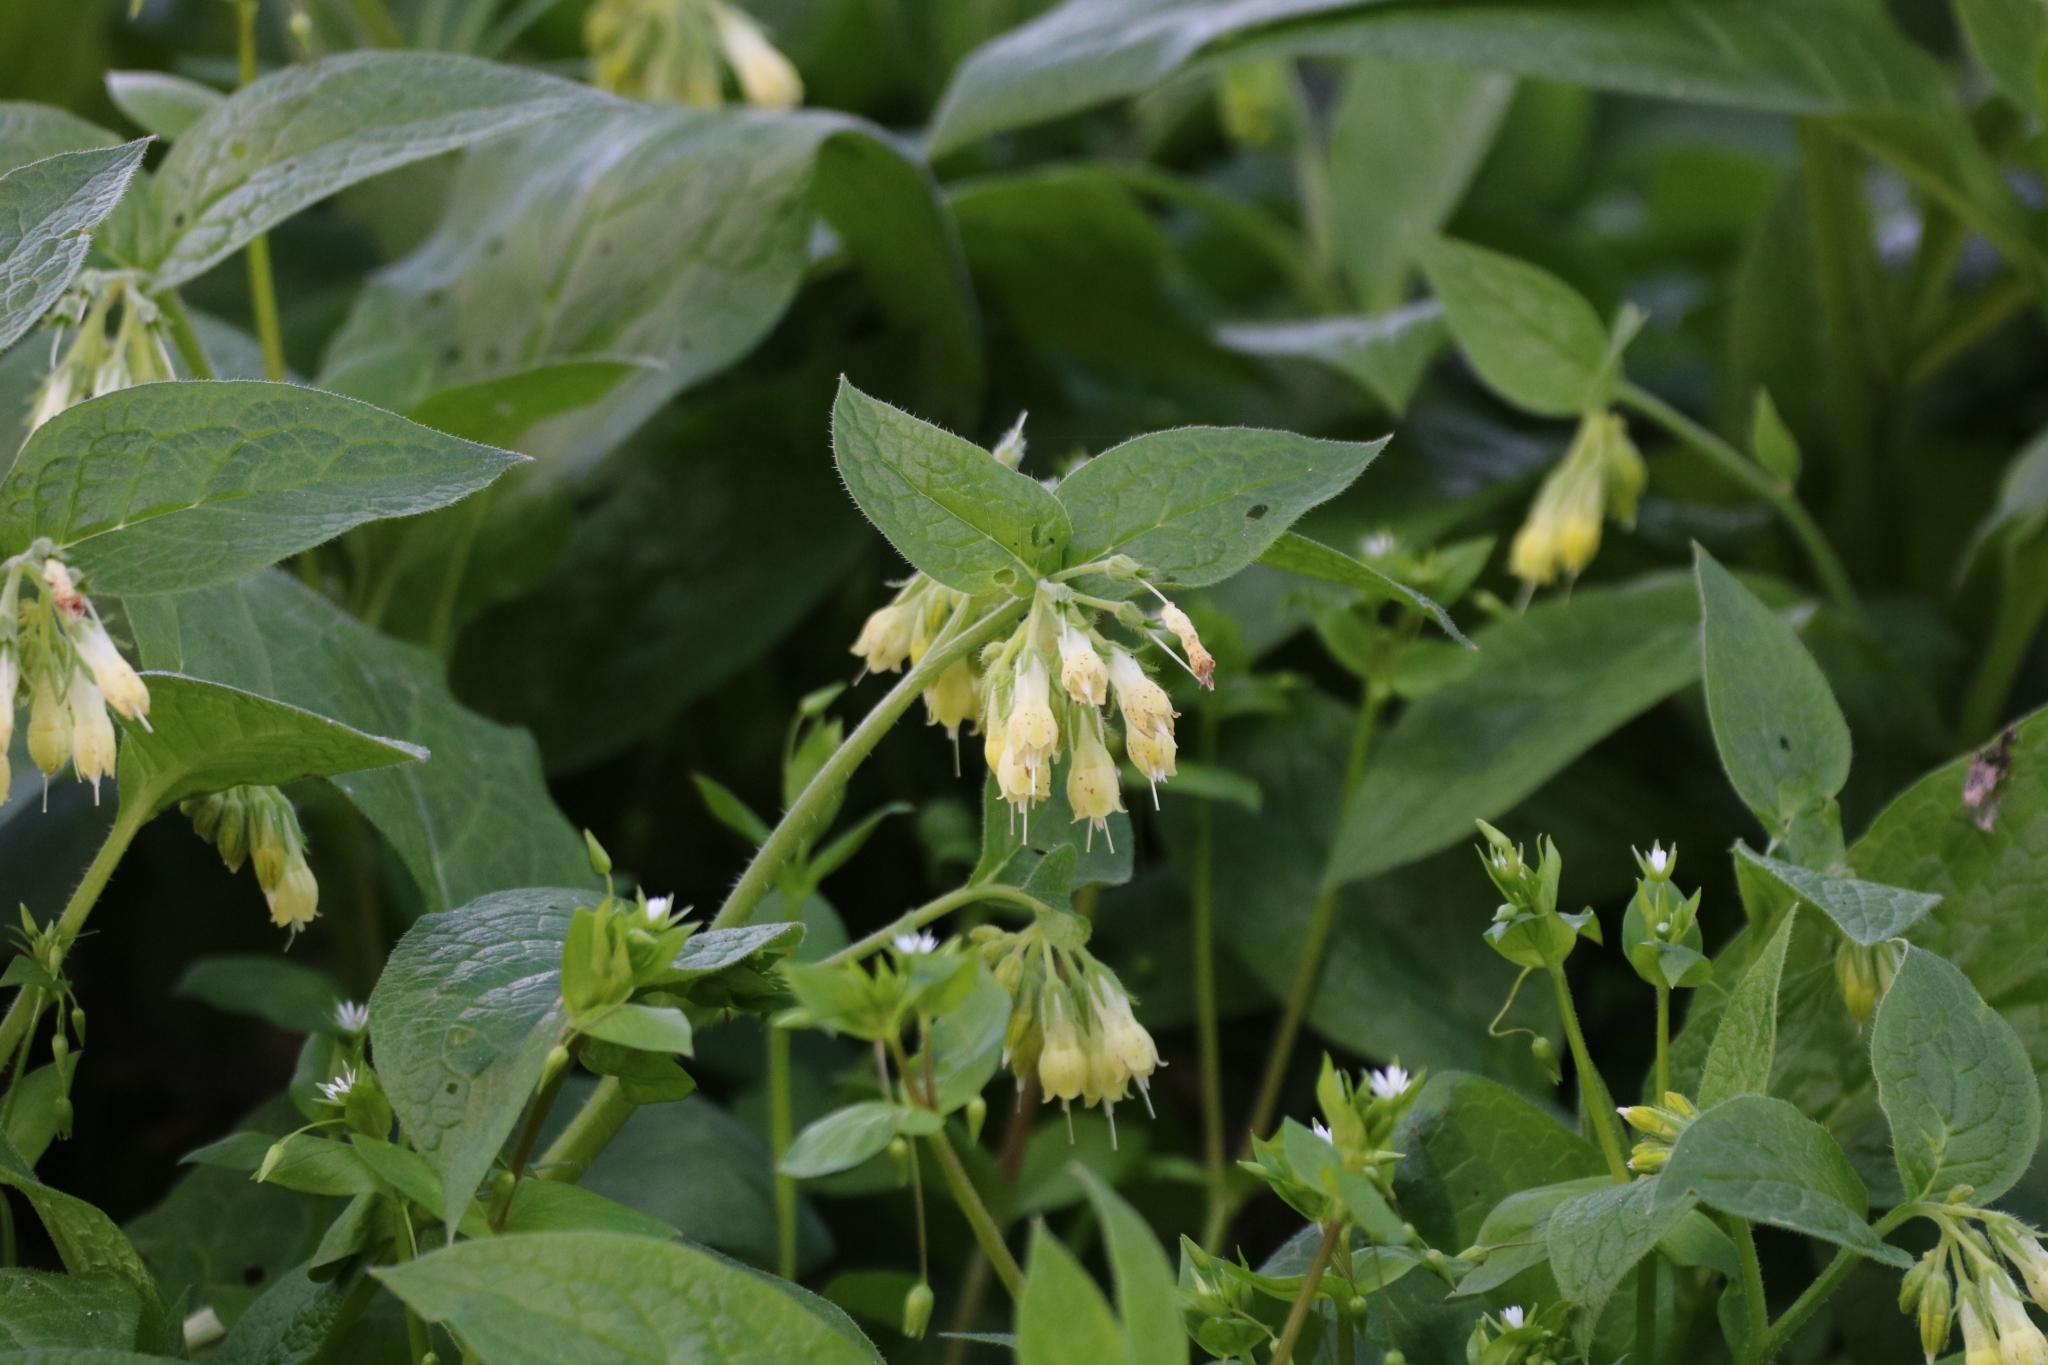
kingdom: Plantae
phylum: Tracheophyta
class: Magnoliopsida
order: Boraginales
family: Boraginaceae
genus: Symphytum
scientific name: Symphytum tuberosum
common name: Tuberous comfrey
